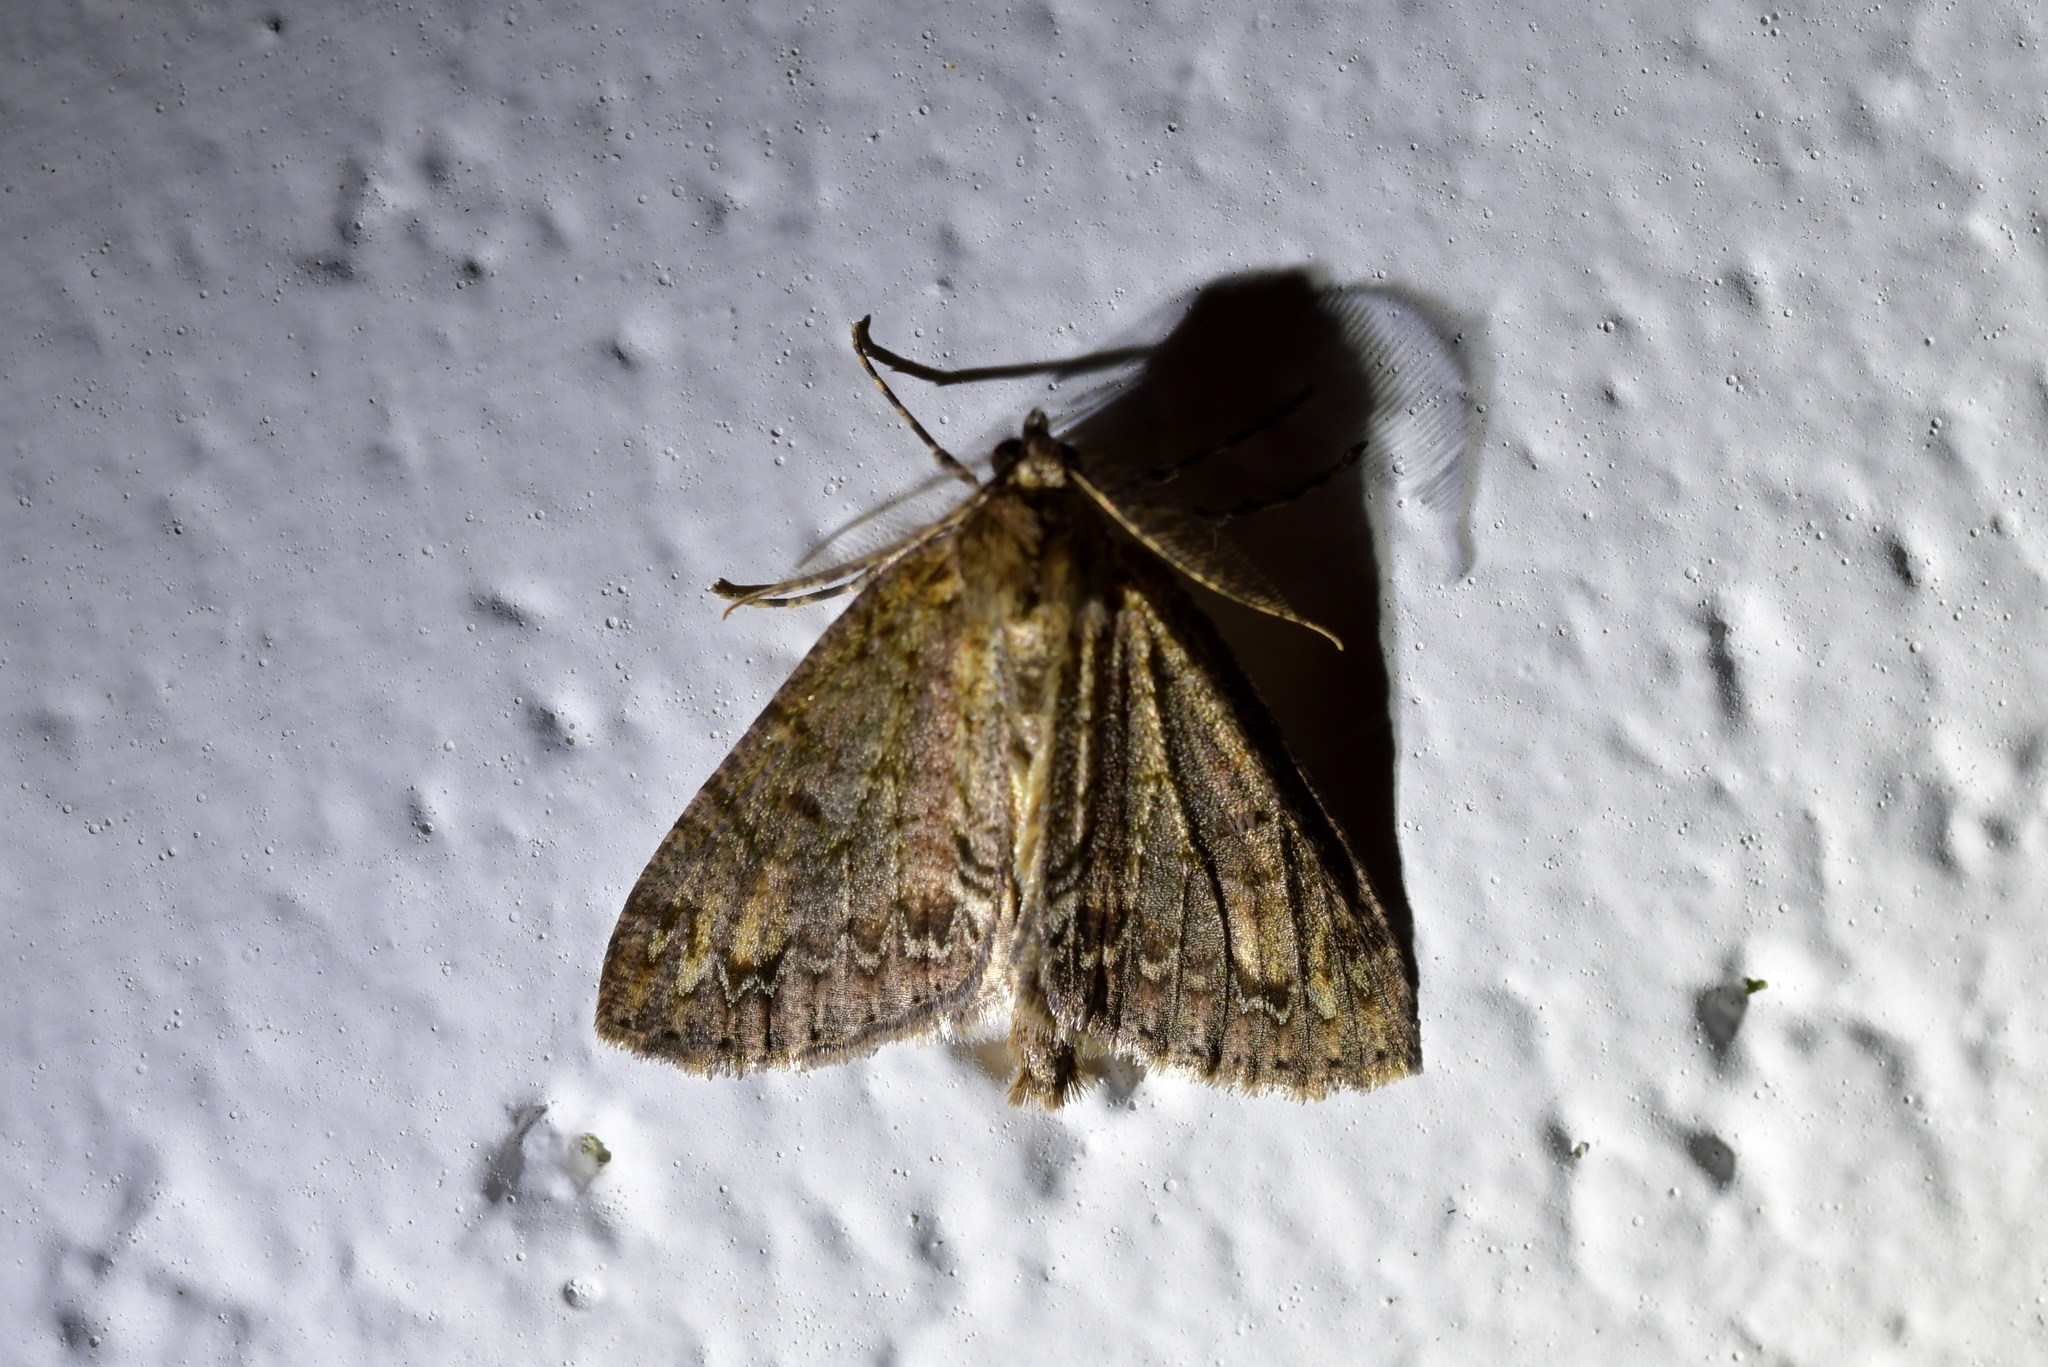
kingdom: Animalia
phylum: Arthropoda
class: Insecta
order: Lepidoptera
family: Geometridae
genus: Pseudocoremia
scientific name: Pseudocoremia suavis
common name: Common forest looper
